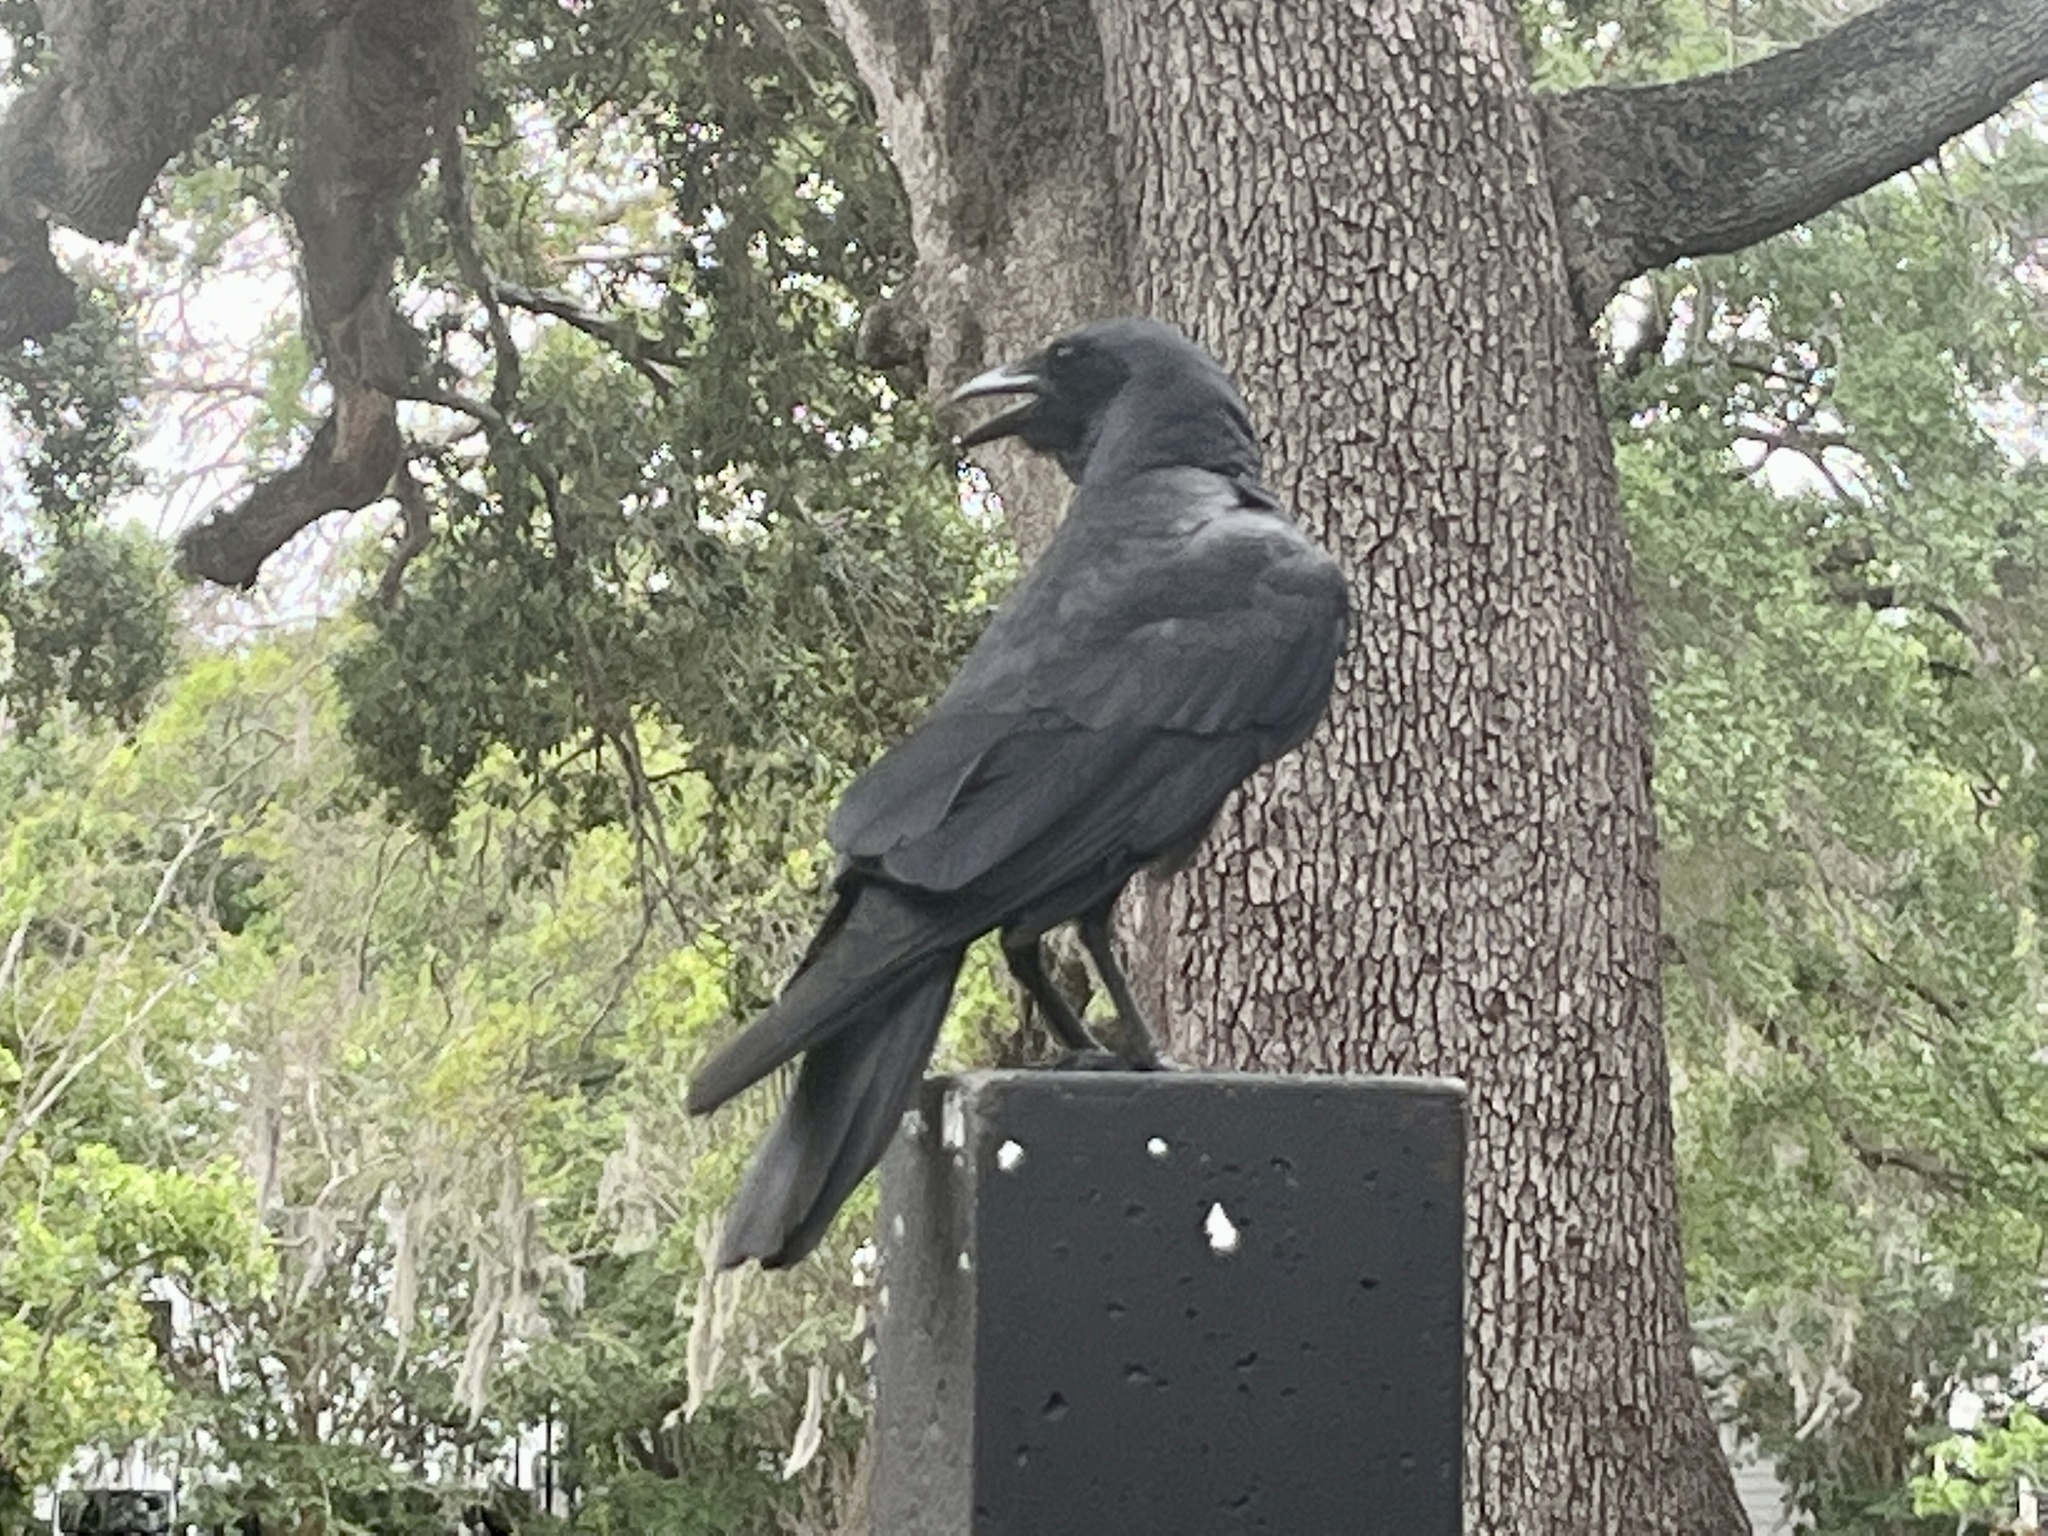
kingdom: Animalia
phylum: Chordata
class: Aves
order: Passeriformes
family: Corvidae
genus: Corvus
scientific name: Corvus
